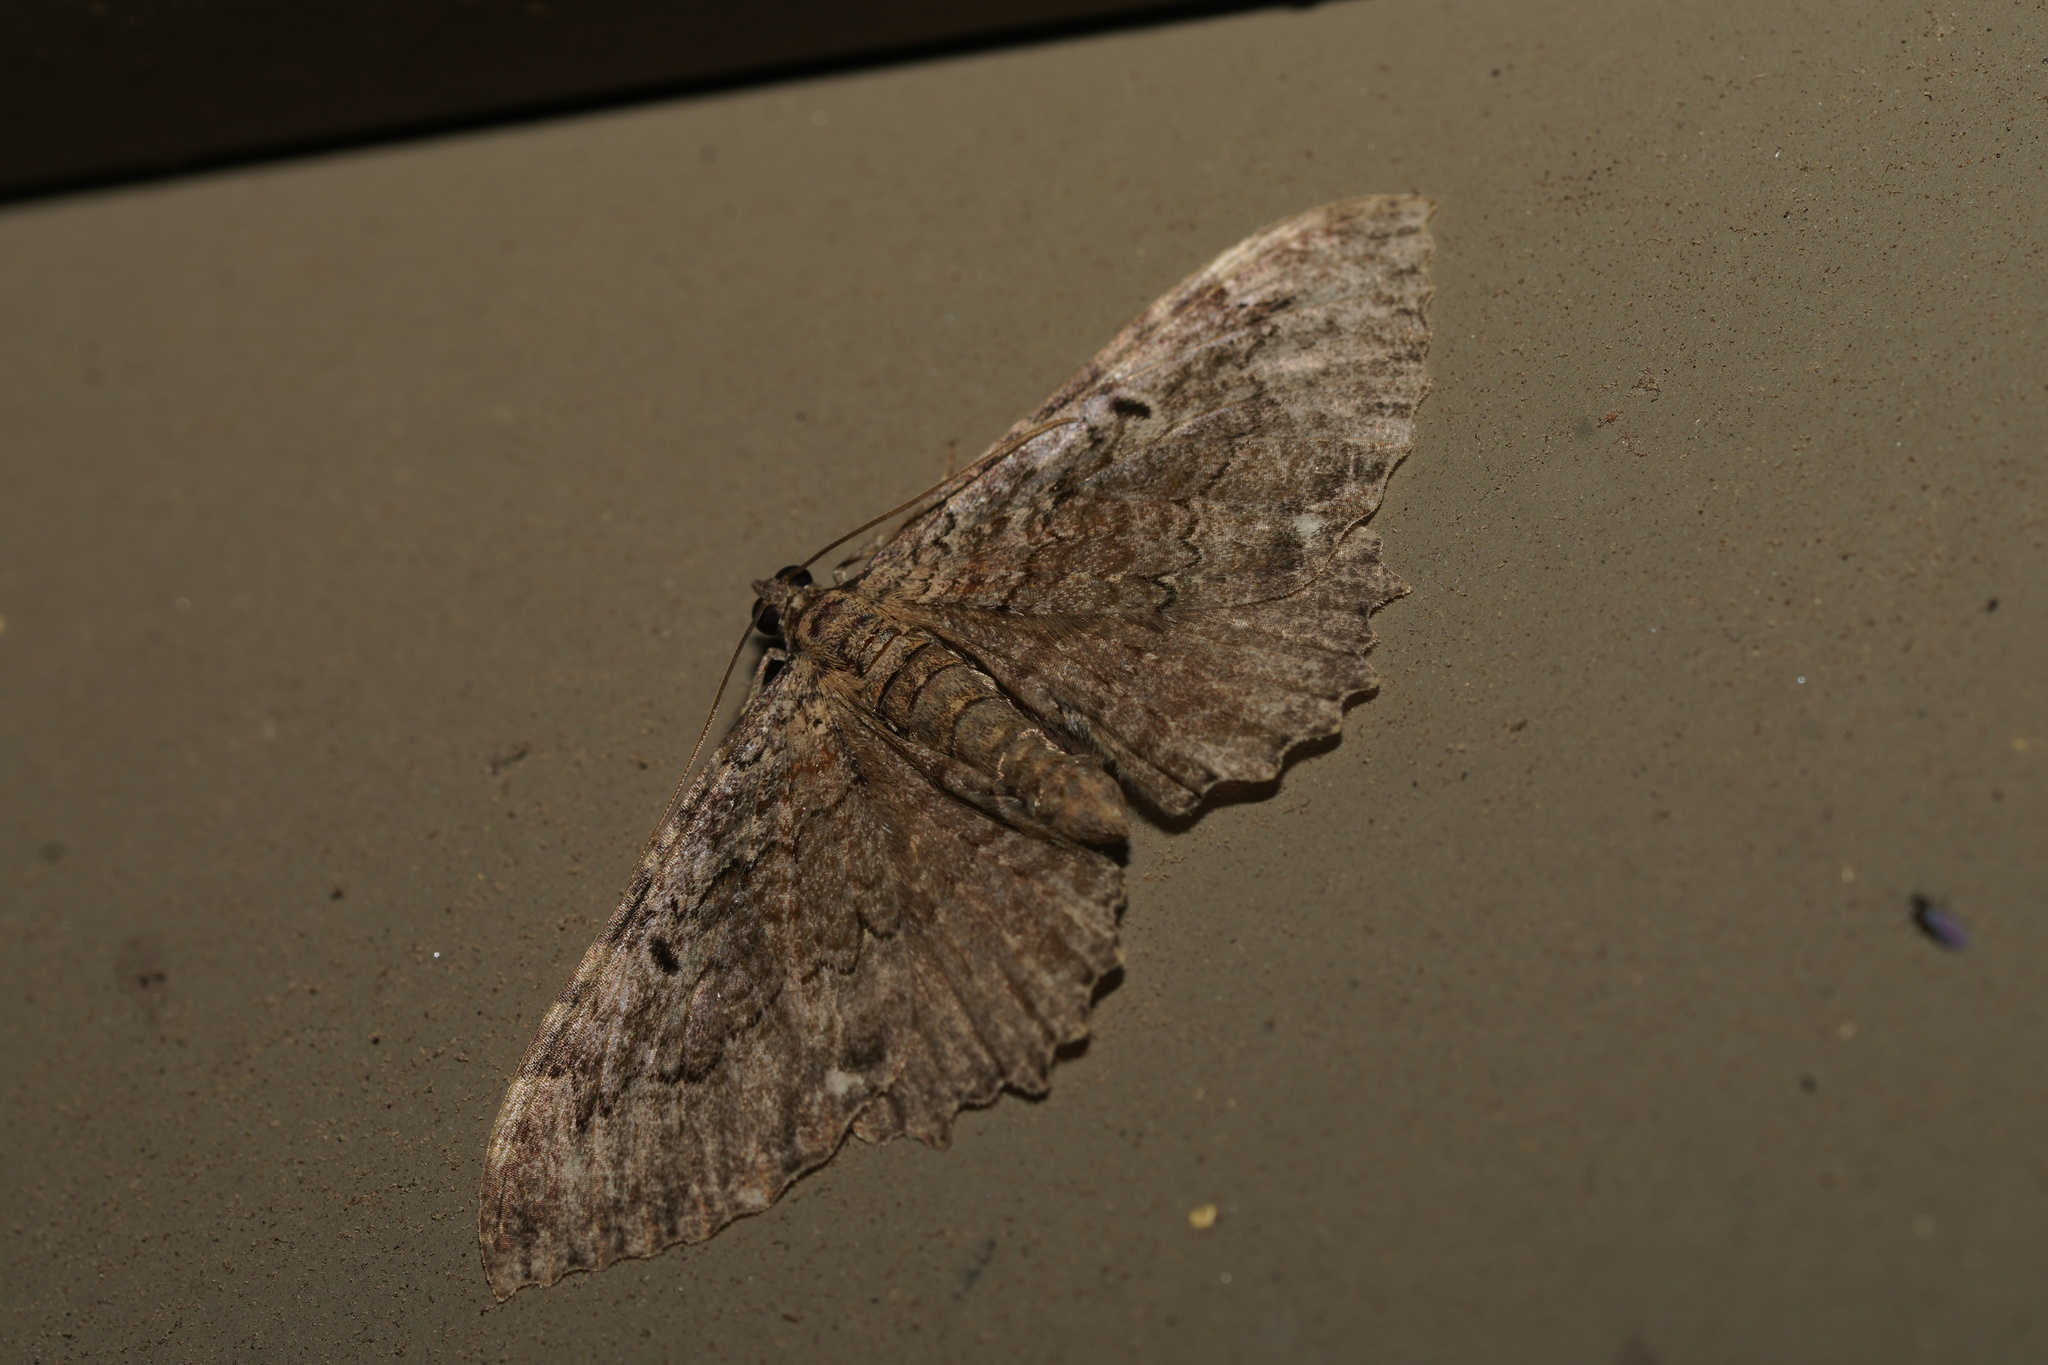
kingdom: Animalia
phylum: Arthropoda
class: Insecta
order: Lepidoptera
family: Geometridae
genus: Rheumaptera
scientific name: Rheumaptera
